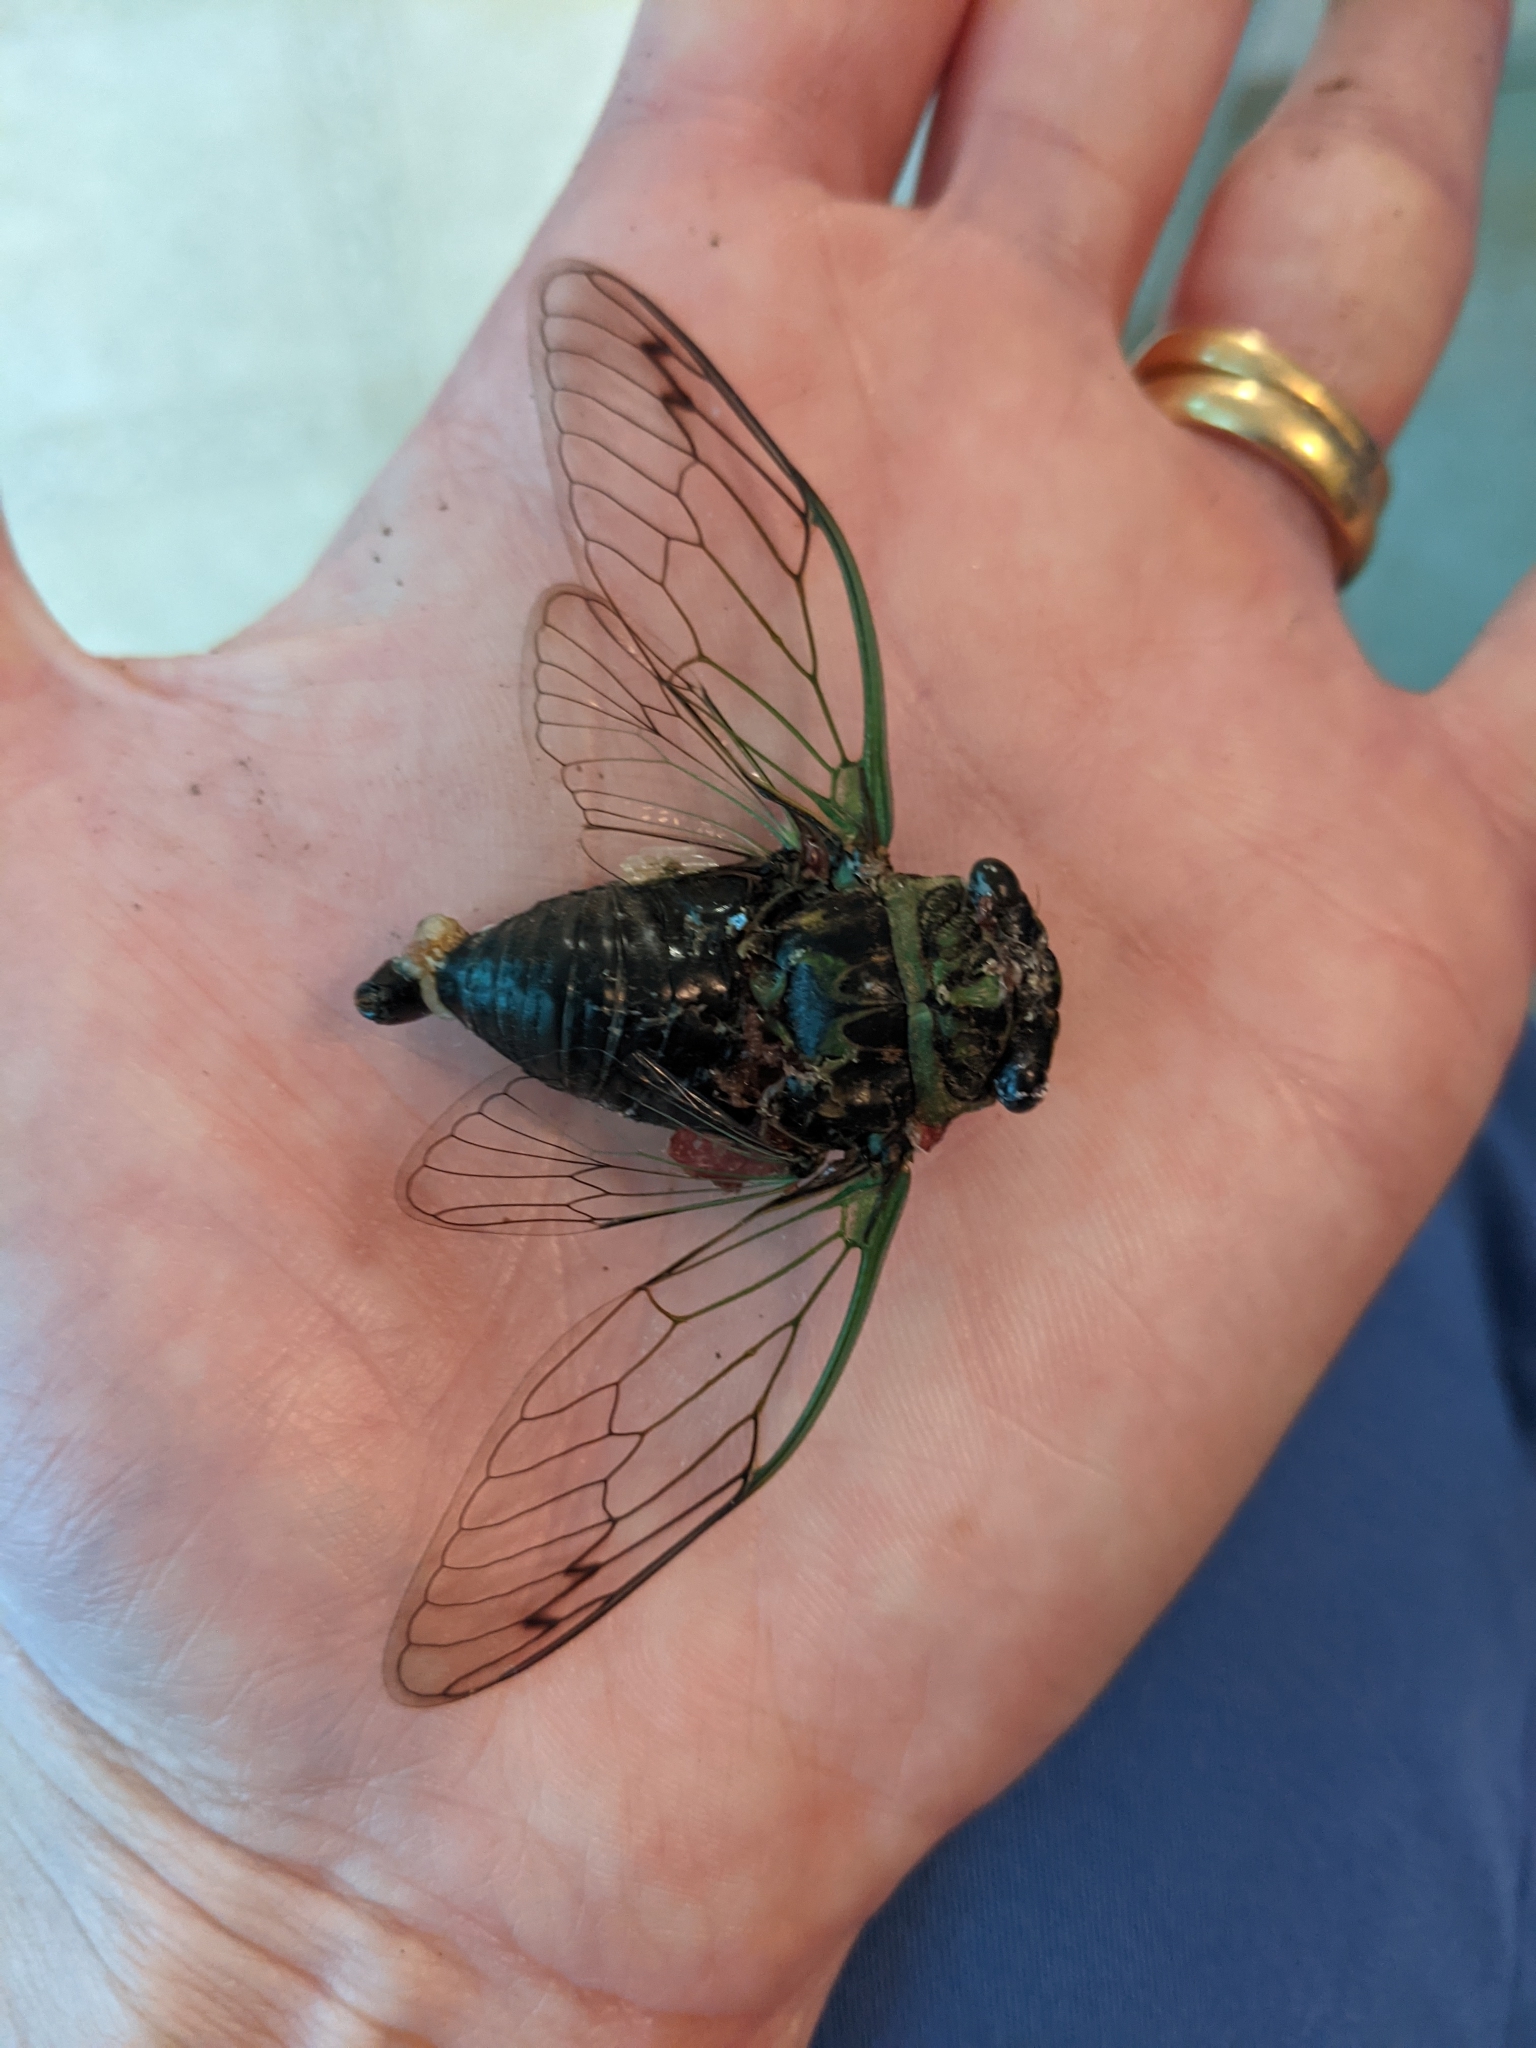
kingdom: Animalia
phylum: Arthropoda
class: Insecta
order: Hemiptera
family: Cicadidae
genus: Neotibicen
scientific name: Neotibicen linnei
